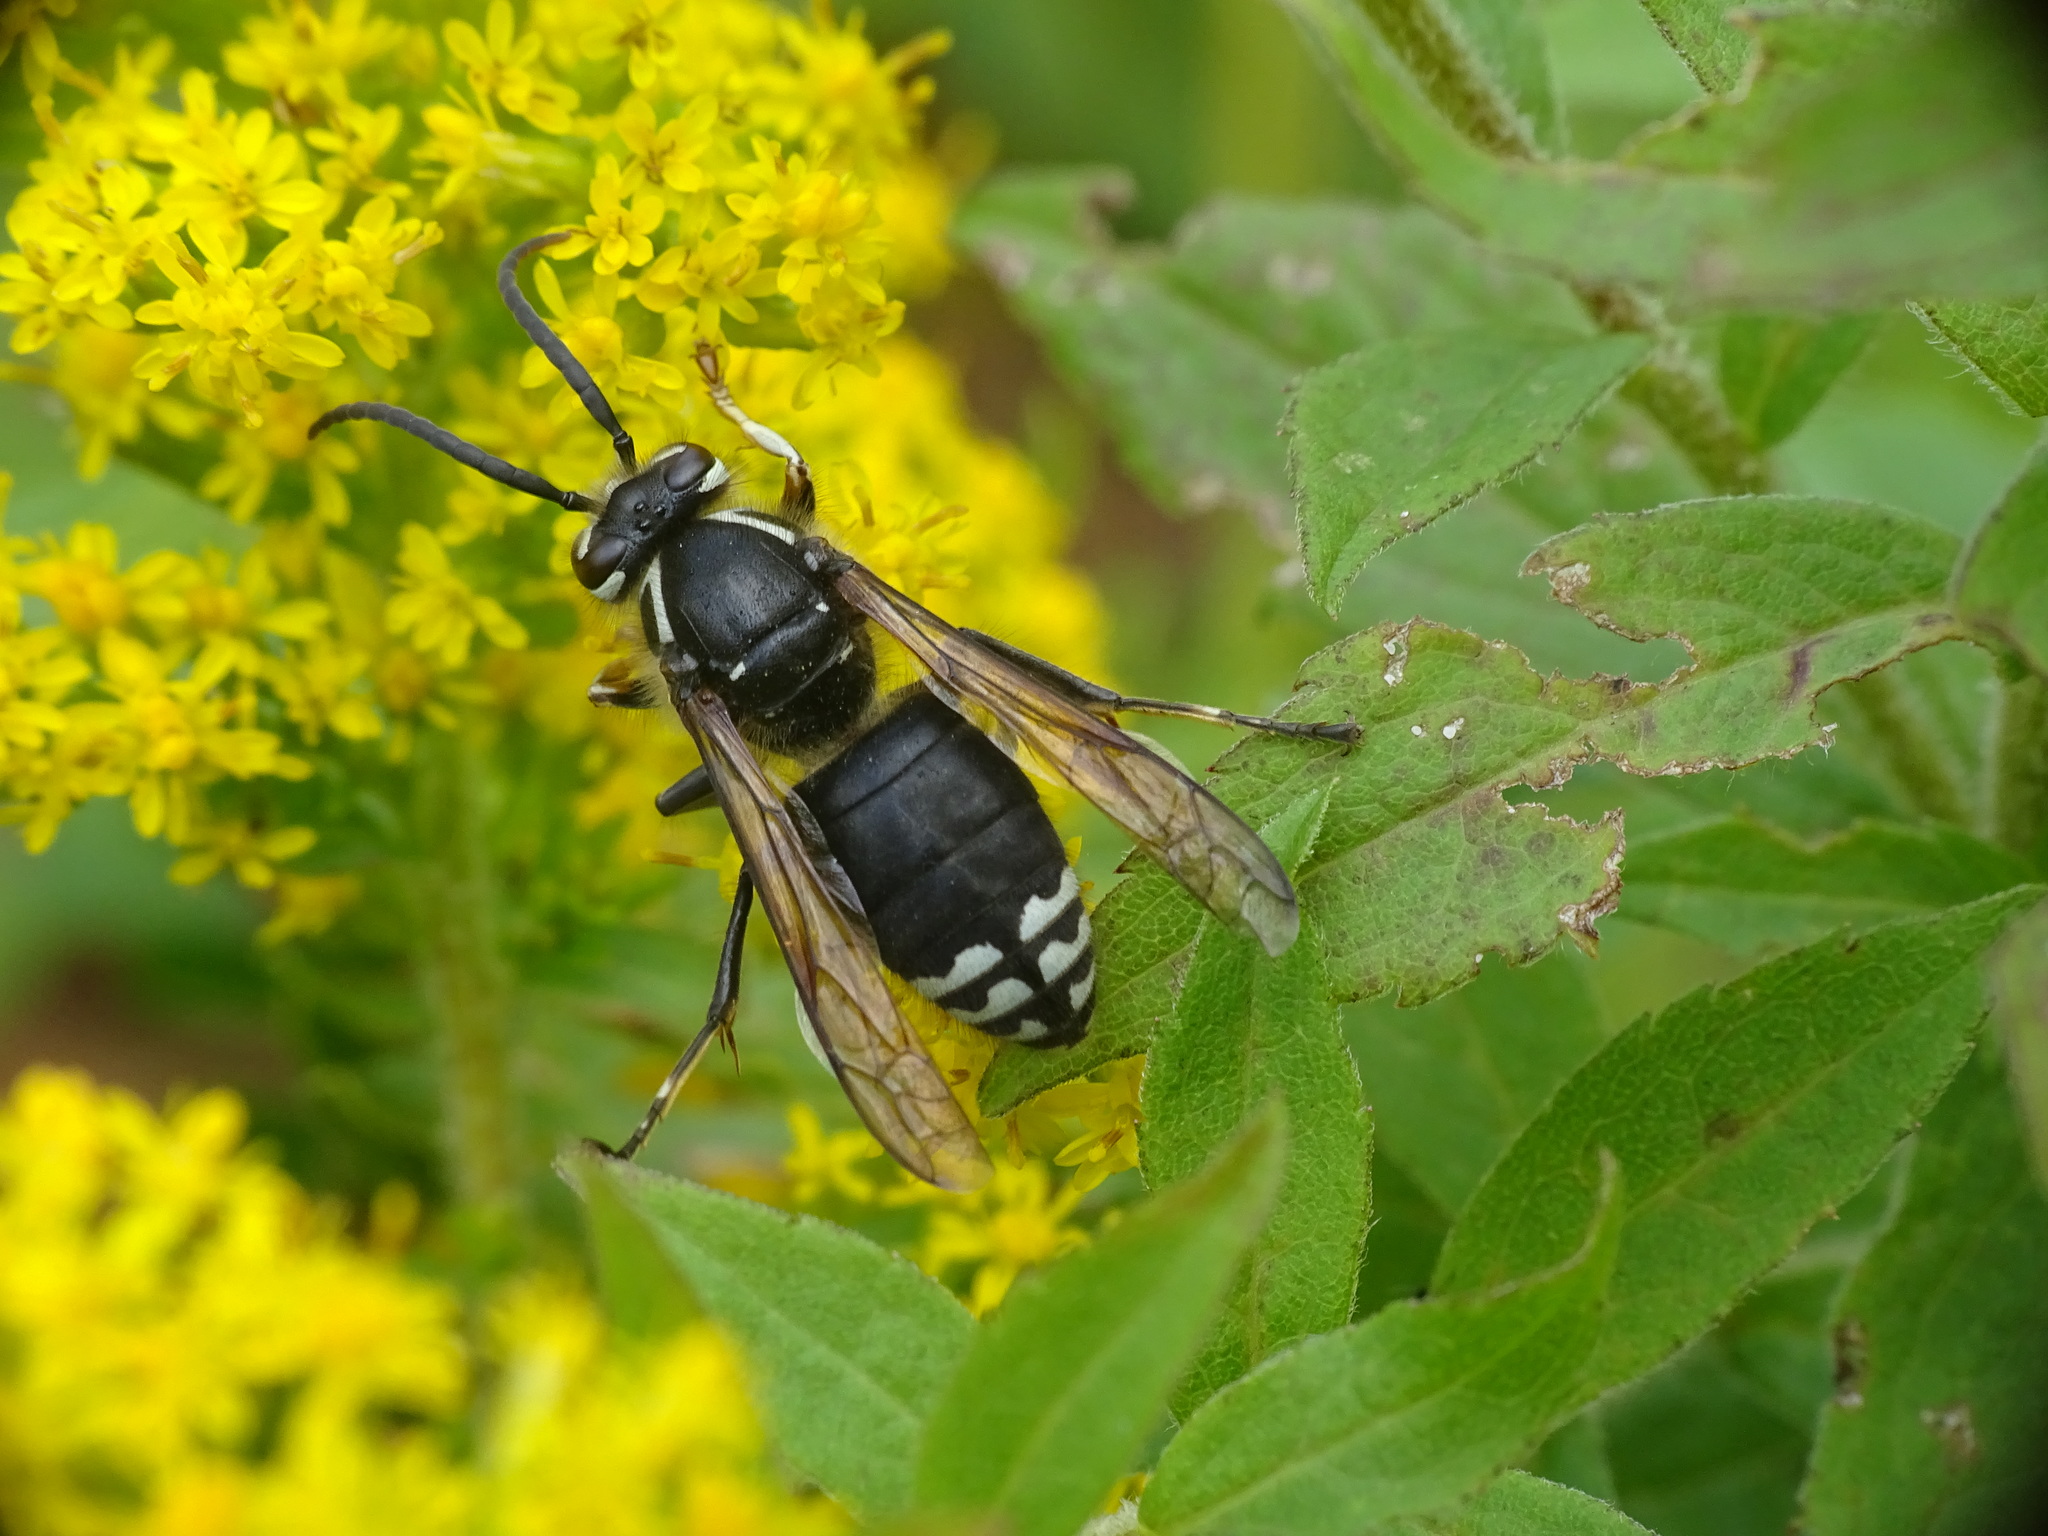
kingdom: Animalia
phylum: Arthropoda
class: Insecta
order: Hymenoptera
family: Vespidae
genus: Dolichovespula
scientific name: Dolichovespula maculata
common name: Bald-faced hornet
